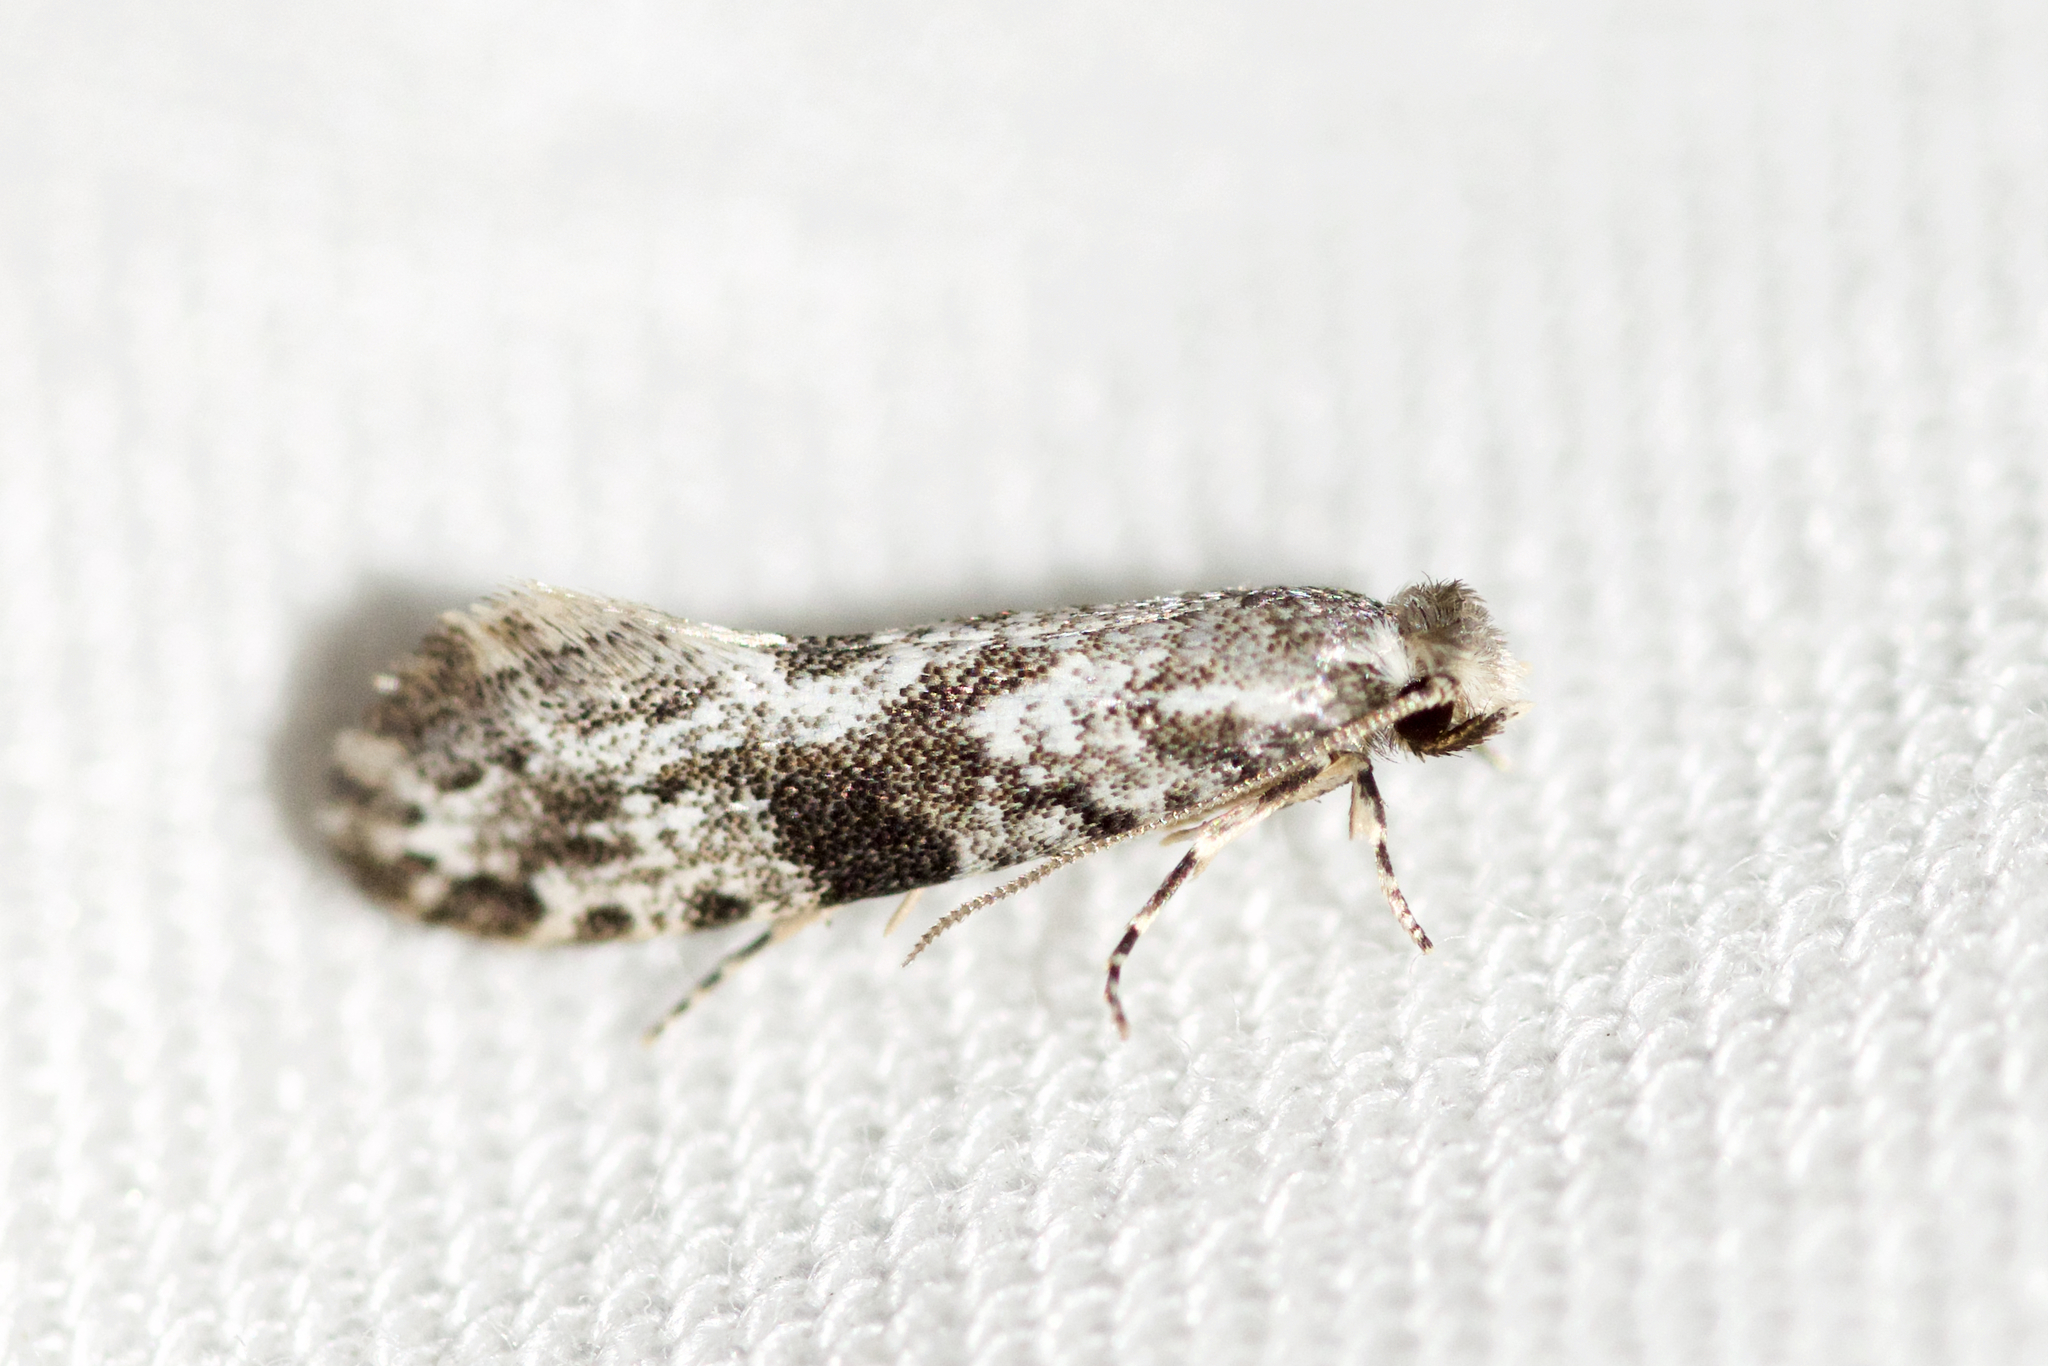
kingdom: Animalia
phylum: Arthropoda
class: Insecta
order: Lepidoptera
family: Tineidae
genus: Nemapogon
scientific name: Nemapogon interstitiella
